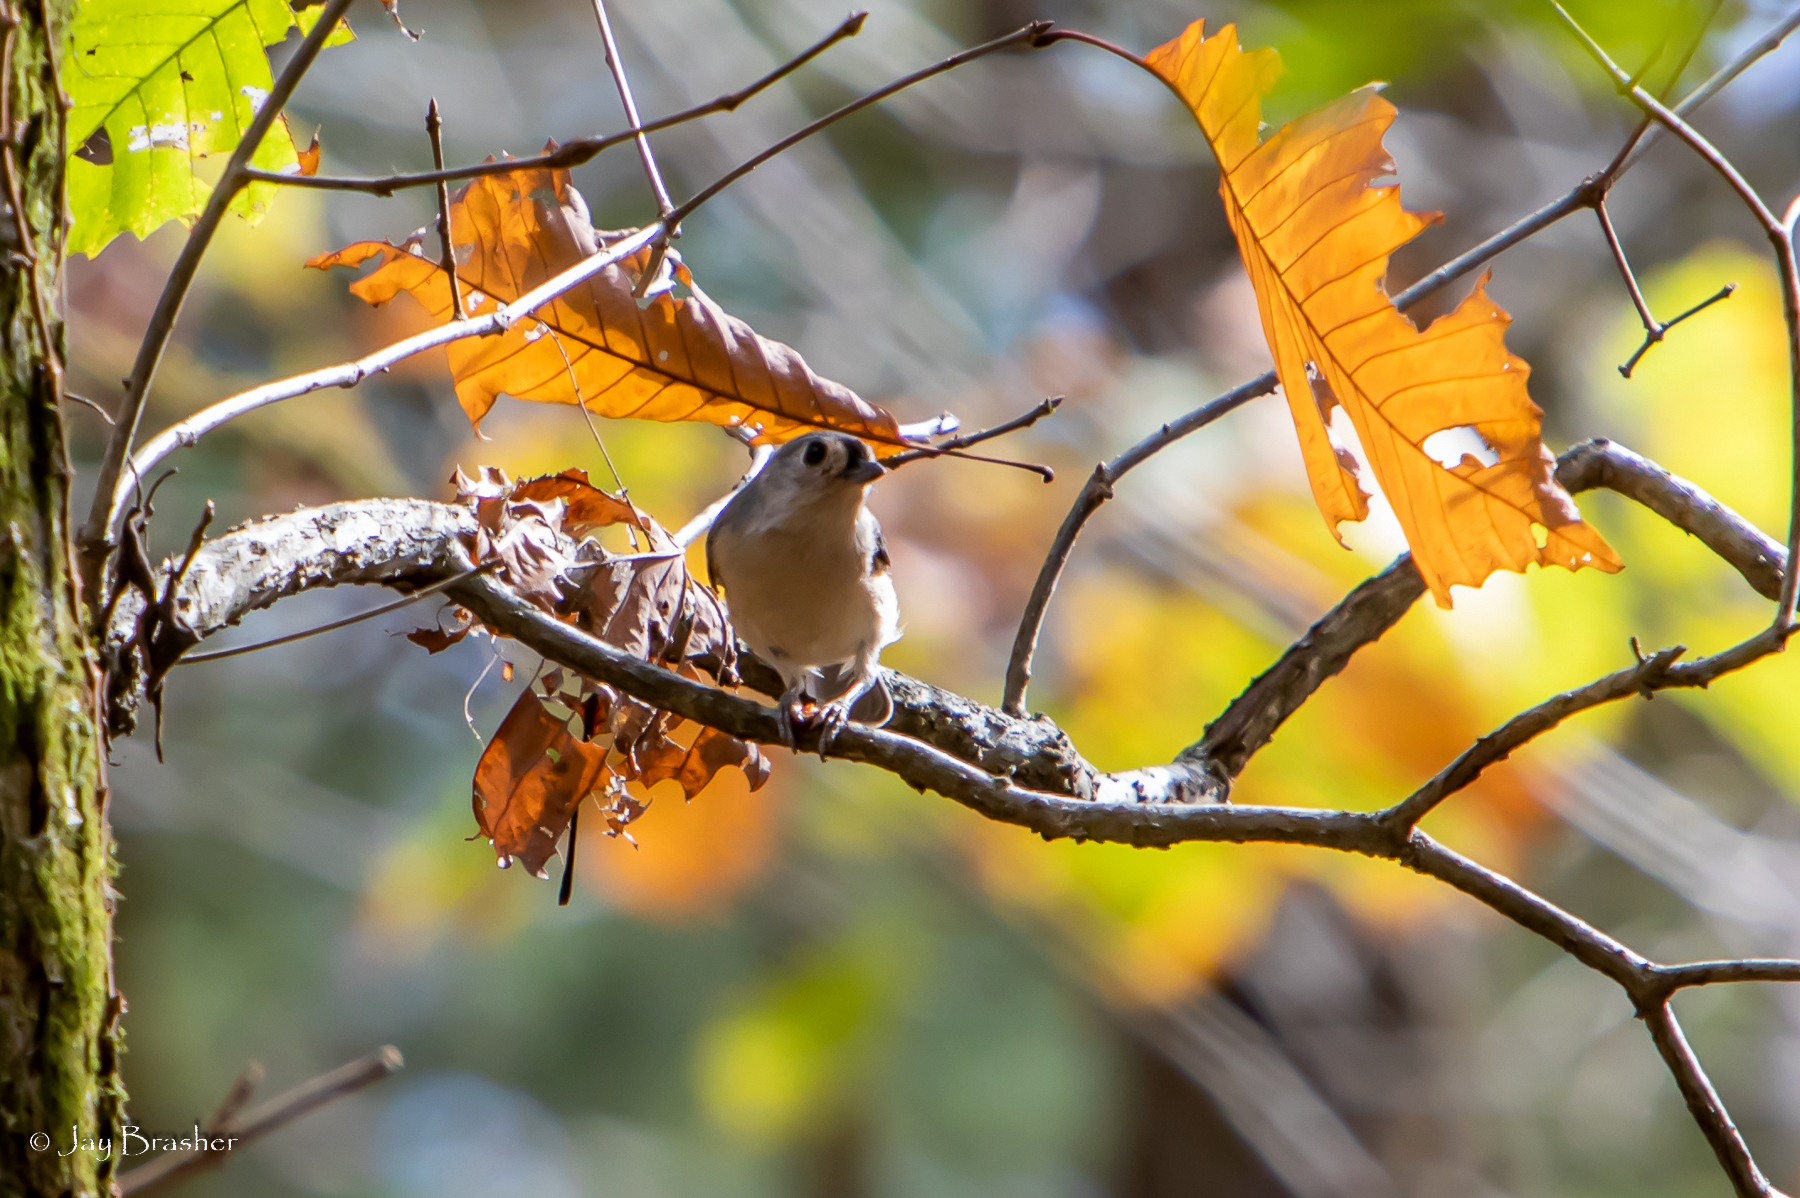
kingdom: Animalia
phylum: Chordata
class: Aves
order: Passeriformes
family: Paridae
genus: Baeolophus
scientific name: Baeolophus bicolor
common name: Tufted titmouse
